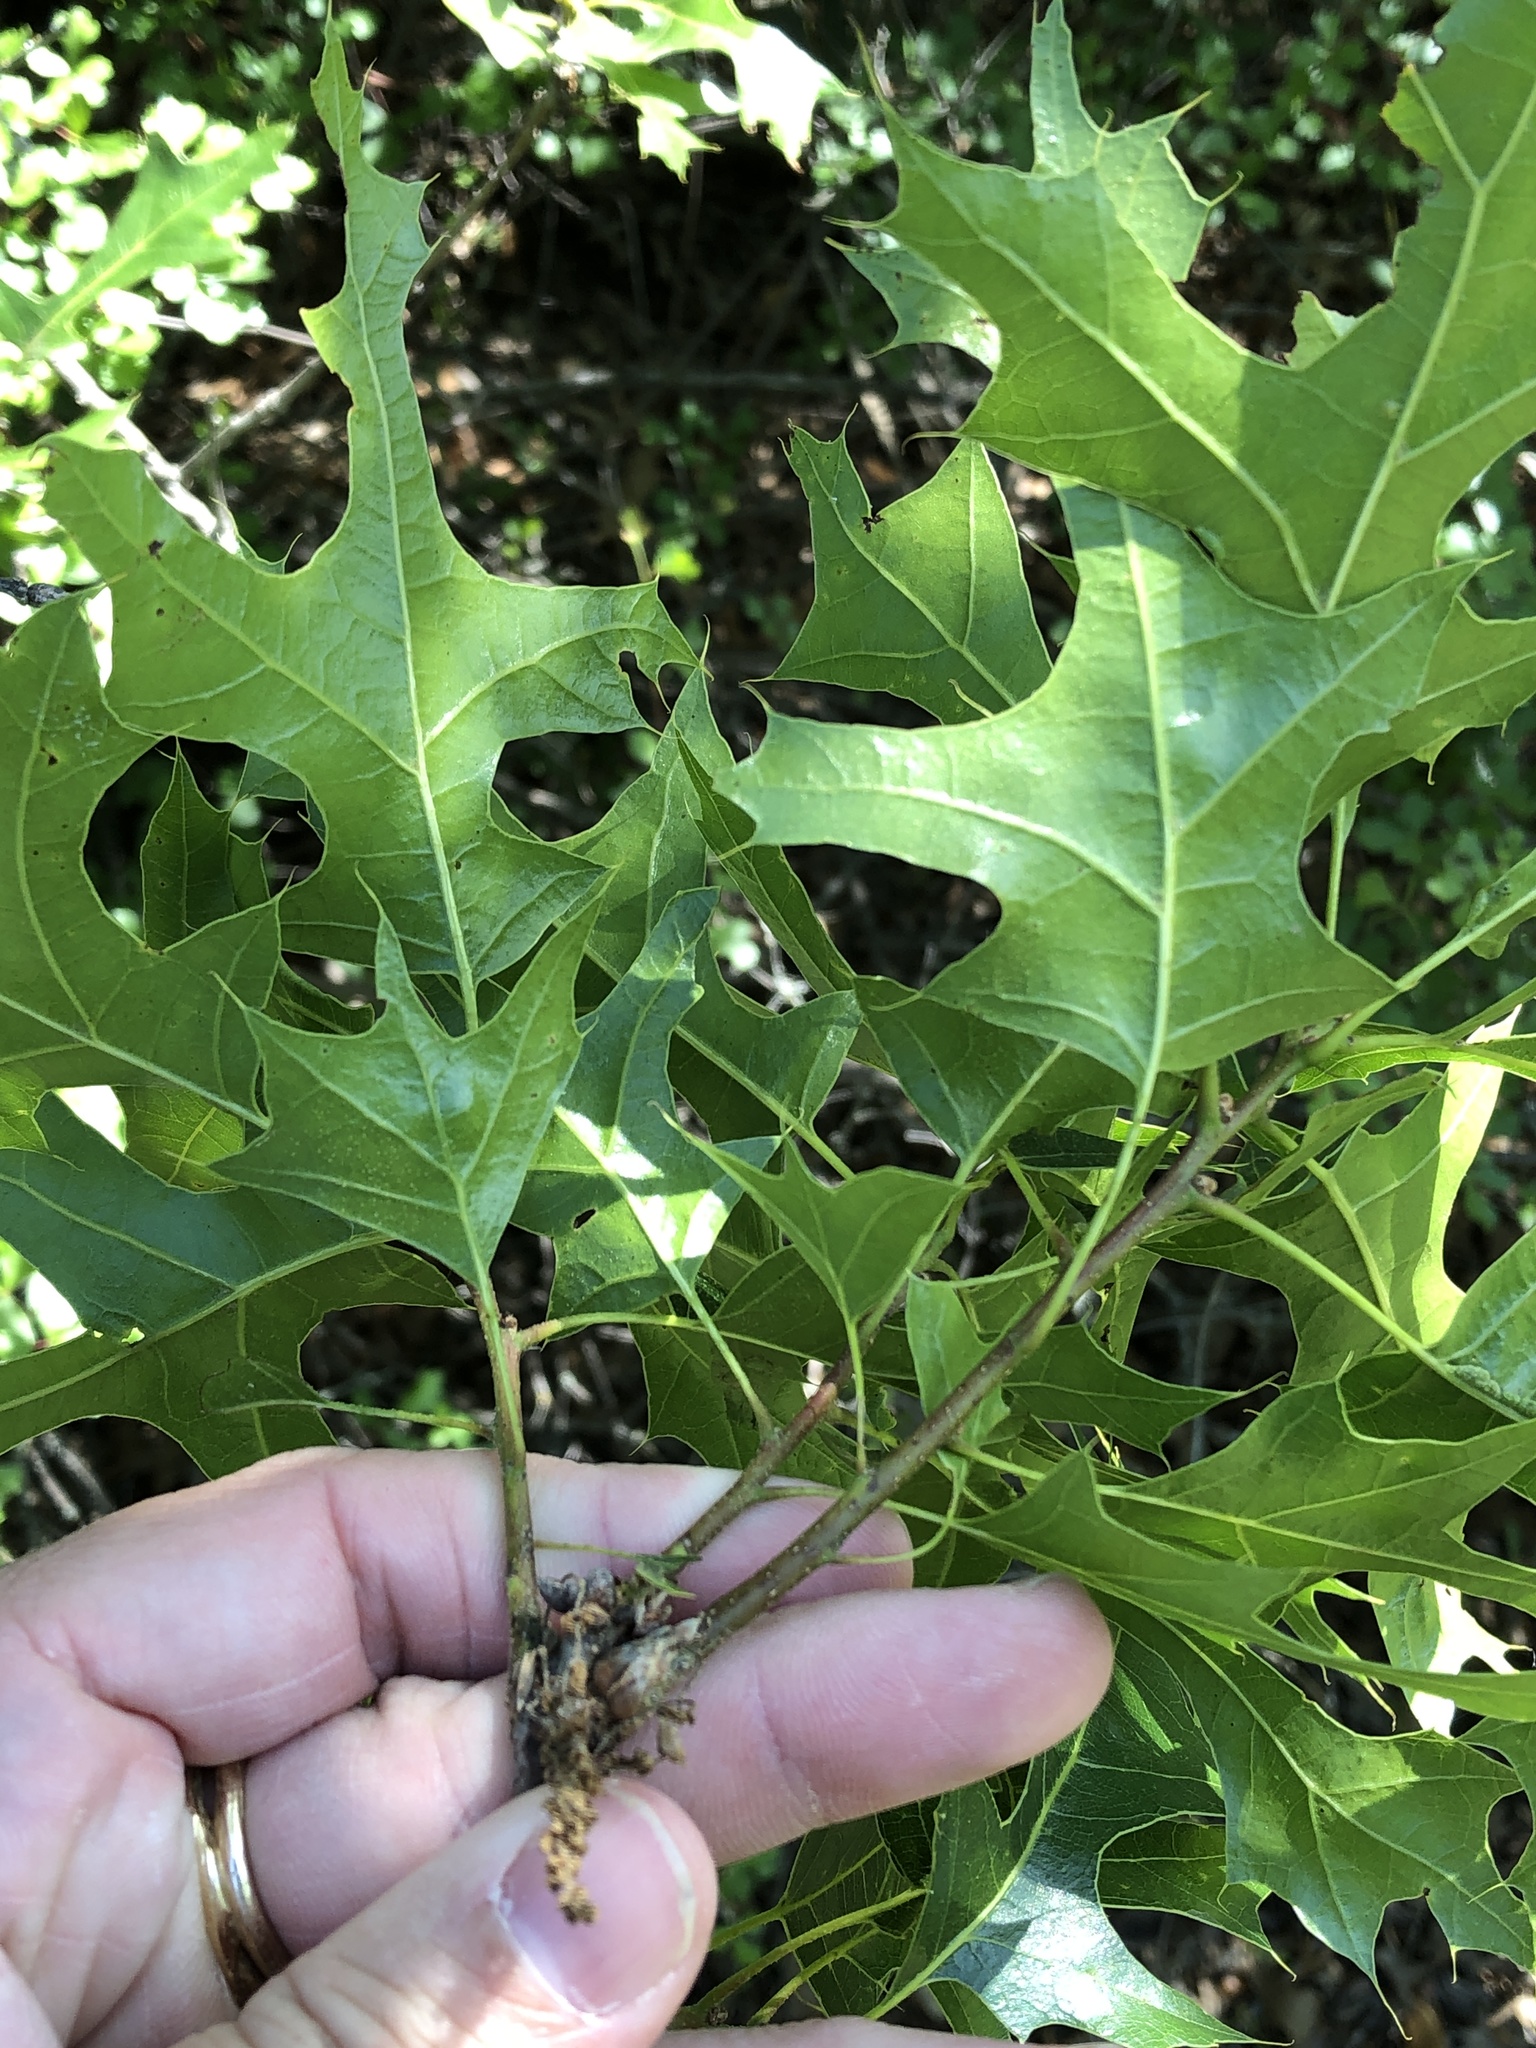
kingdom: Plantae
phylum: Tracheophyta
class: Magnoliopsida
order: Fagales
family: Fagaceae
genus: Quercus
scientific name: Quercus buckleyi
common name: Buckley oak
